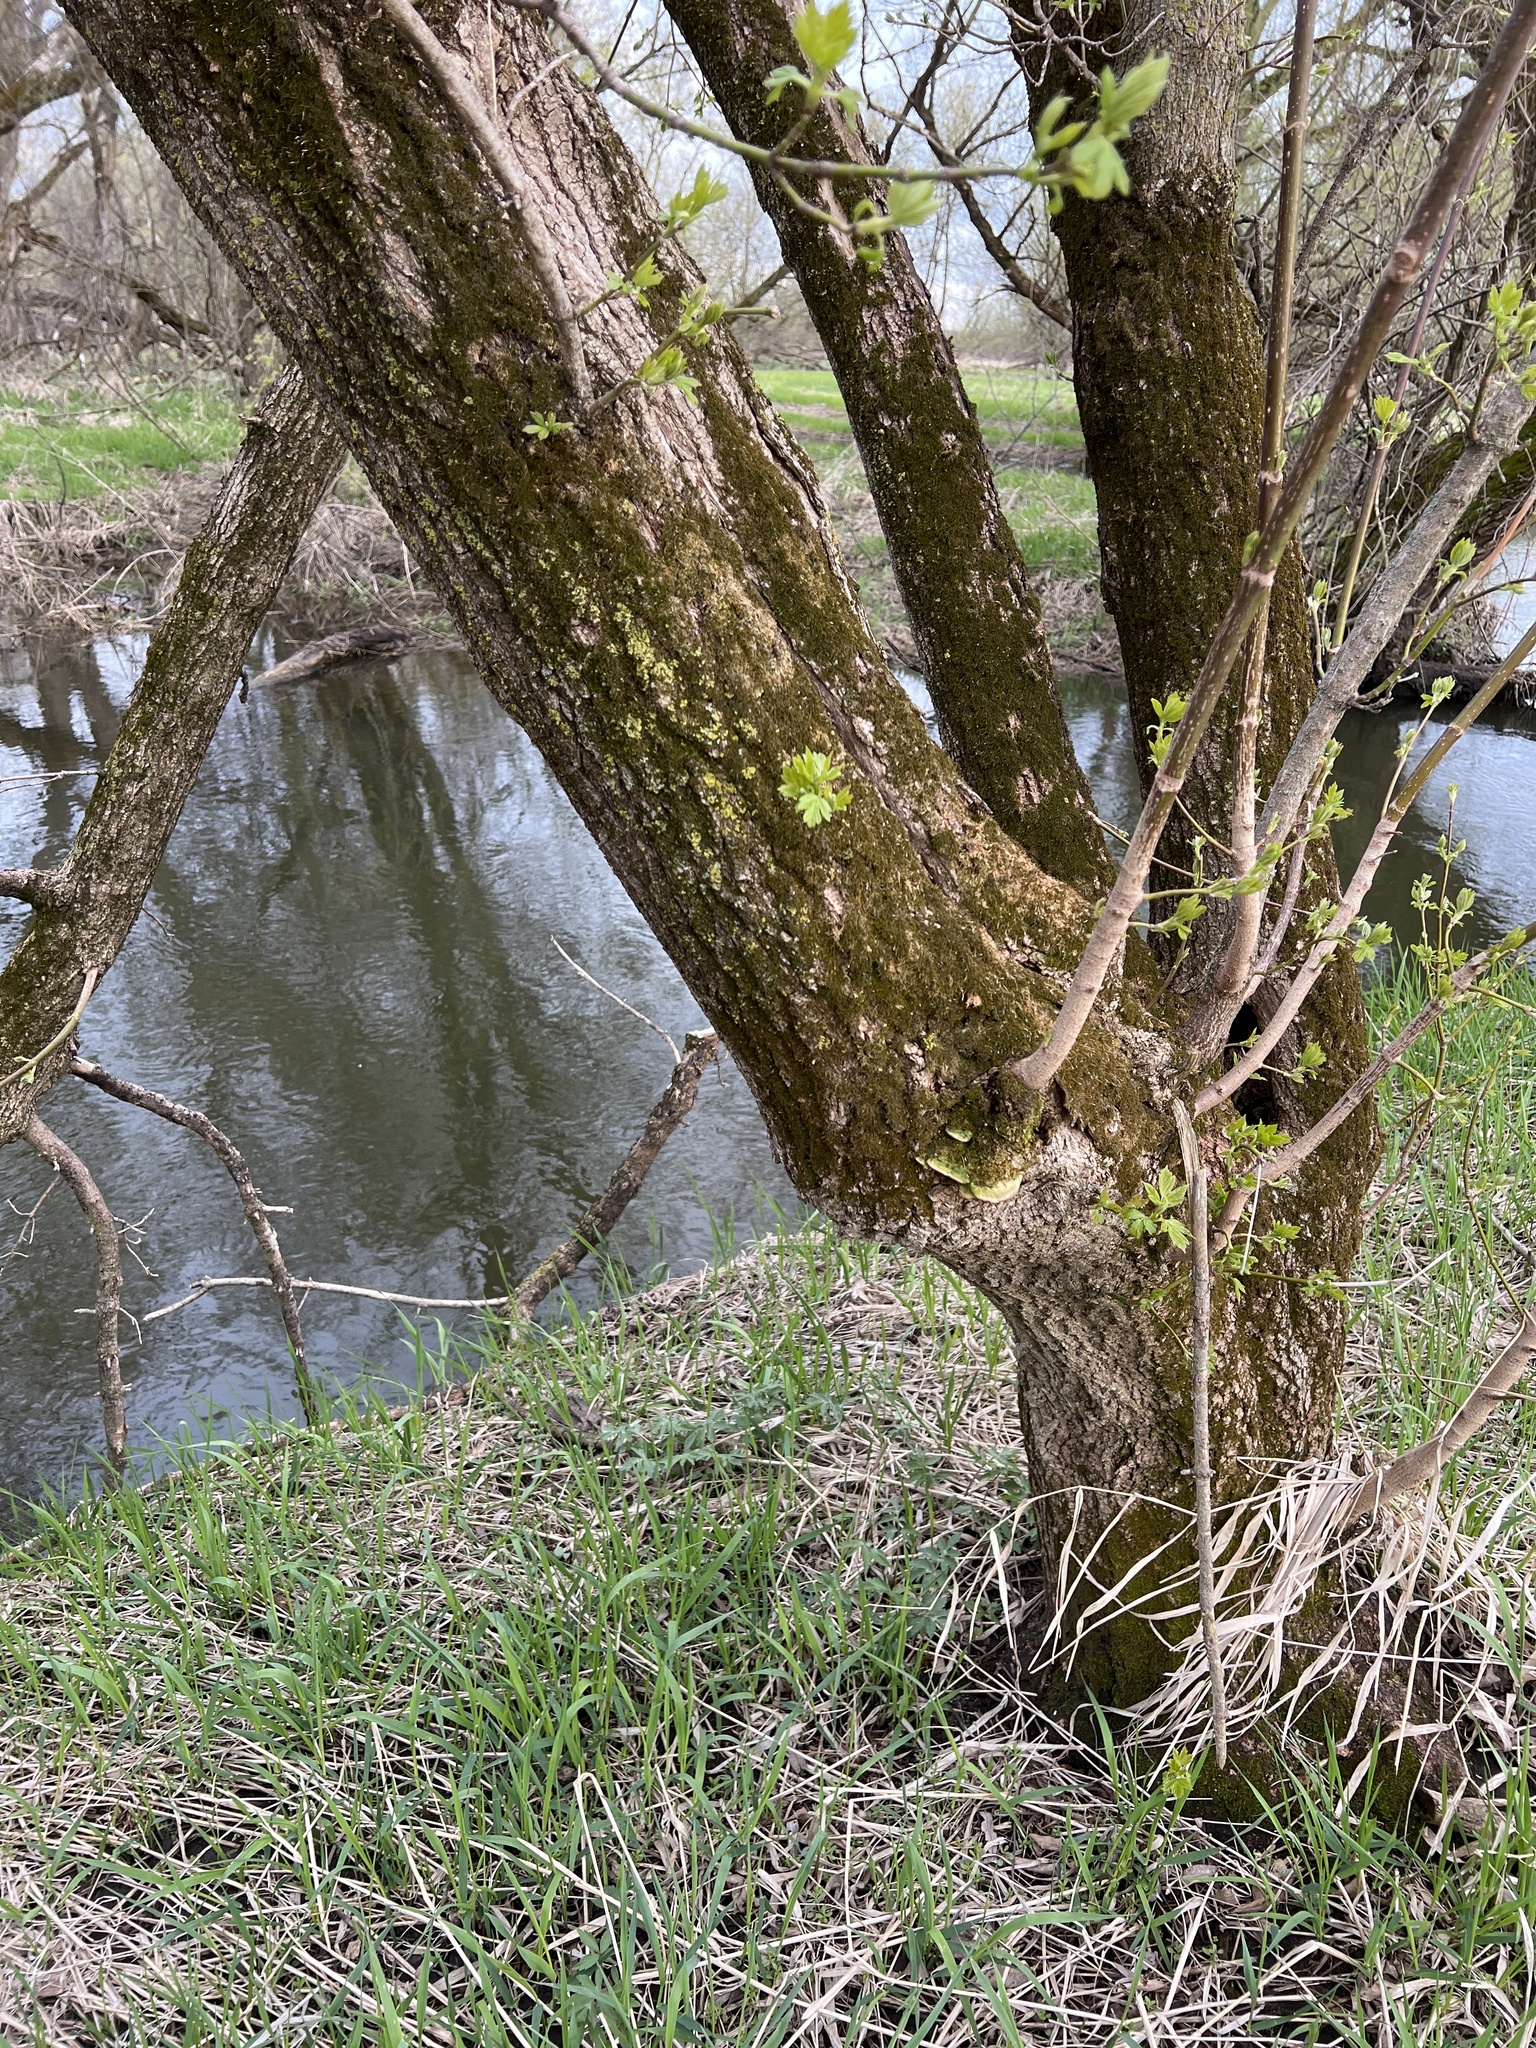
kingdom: Plantae
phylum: Tracheophyta
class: Magnoliopsida
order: Sapindales
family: Sapindaceae
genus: Acer
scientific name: Acer negundo
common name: Ashleaf maple
